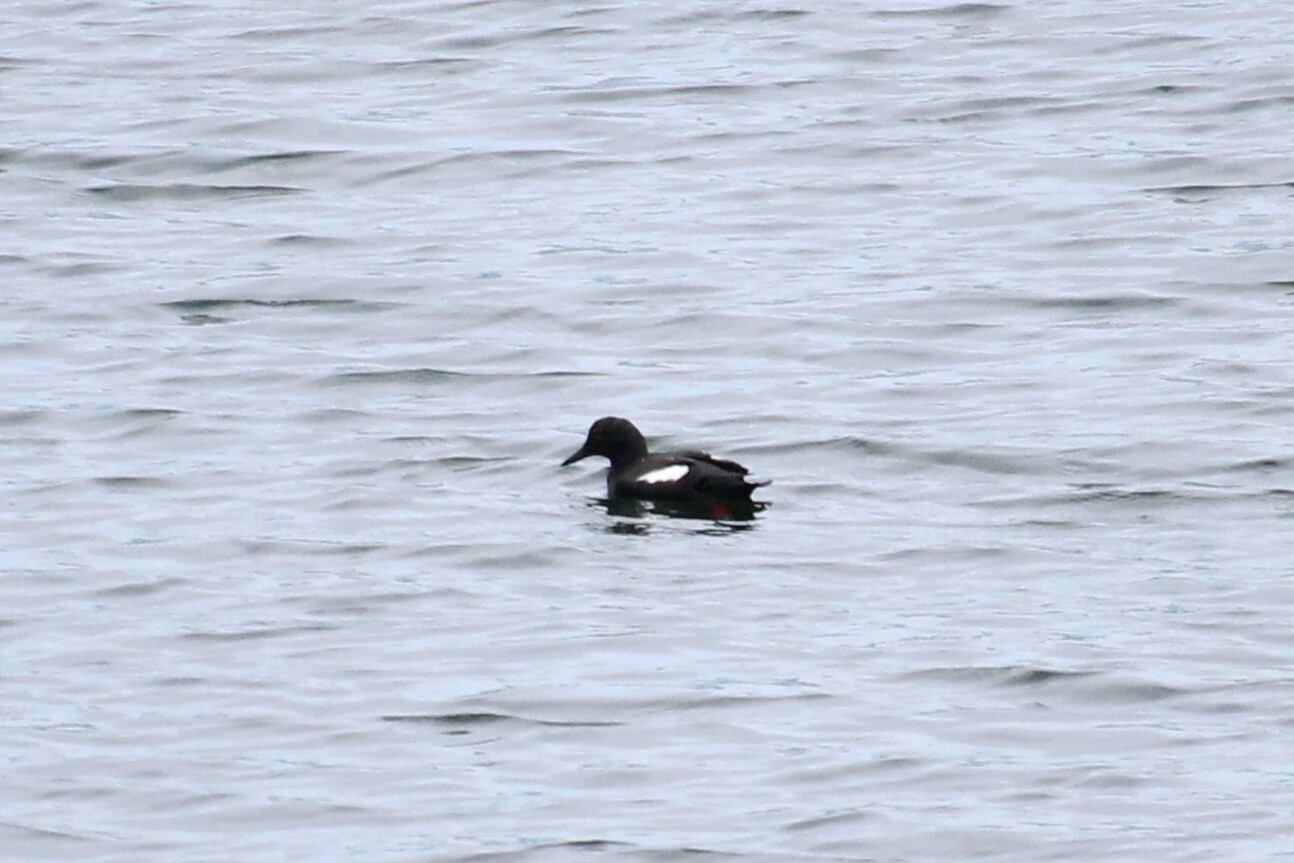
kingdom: Animalia
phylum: Chordata
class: Aves
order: Charadriiformes
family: Alcidae
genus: Cepphus
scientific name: Cepphus columba
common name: Pigeon guillemot
